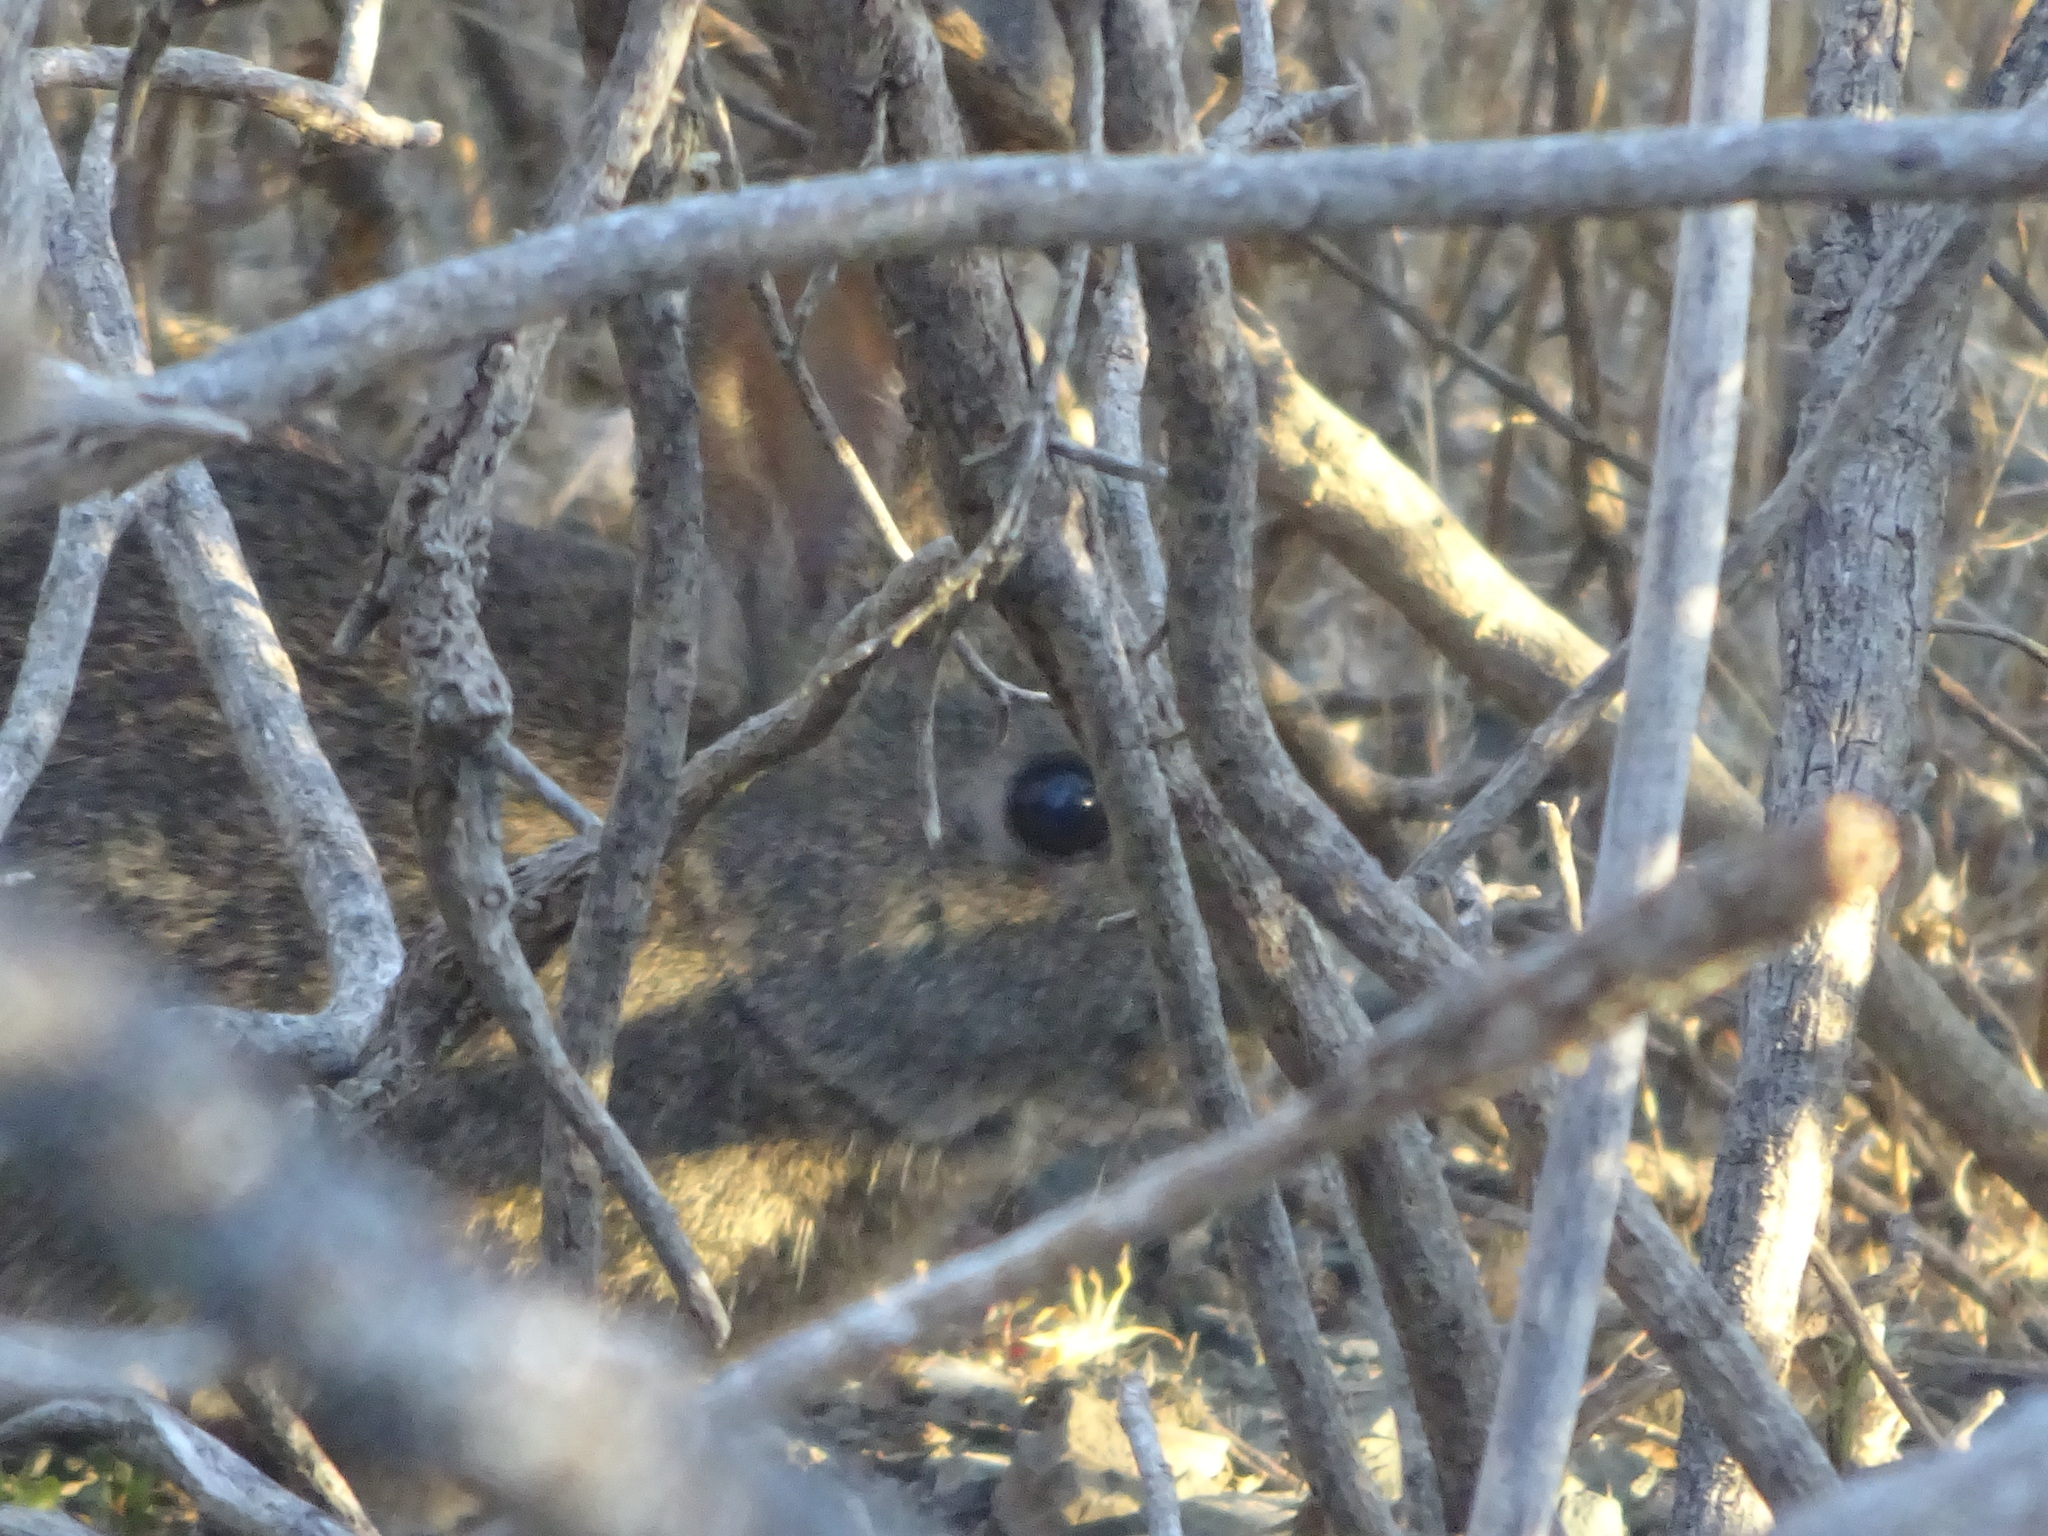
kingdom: Animalia
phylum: Chordata
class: Mammalia
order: Lagomorpha
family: Leporidae
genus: Sylvilagus
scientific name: Sylvilagus bachmani
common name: Brush rabbit
